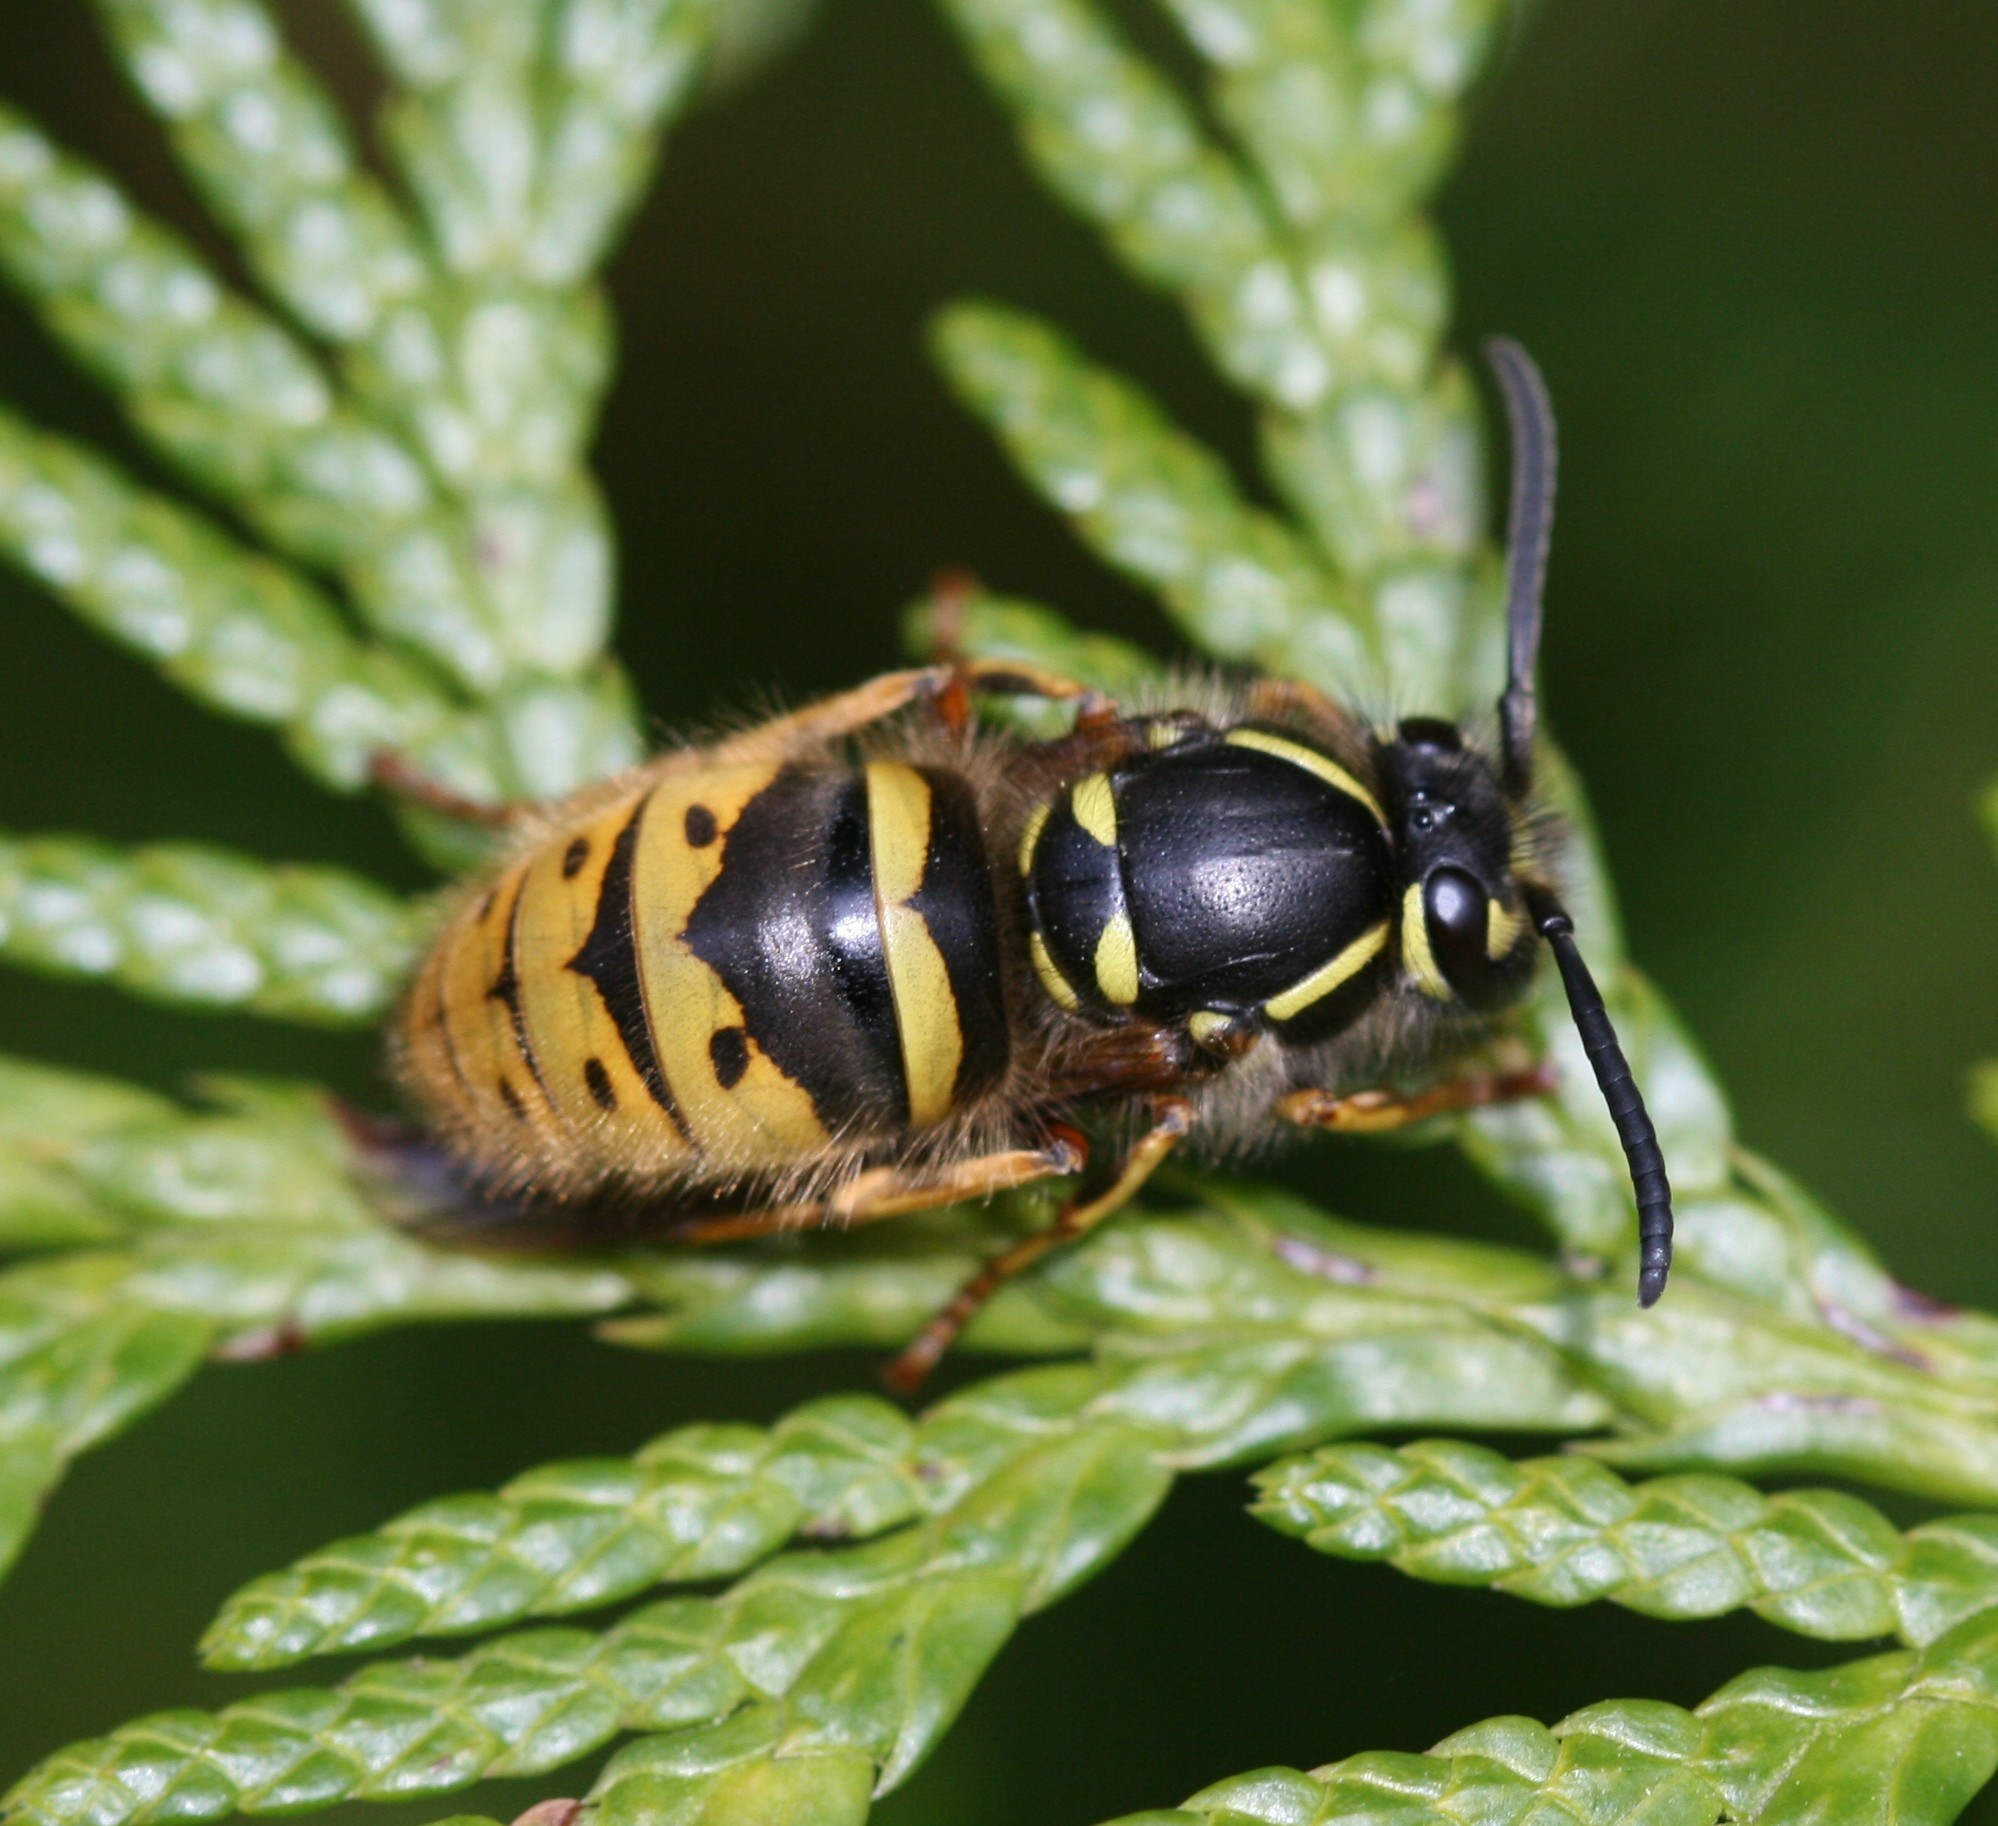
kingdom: Animalia
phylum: Arthropoda
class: Insecta
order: Hymenoptera
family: Vespidae
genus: Vespula
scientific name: Vespula vulgaris
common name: Common wasp
